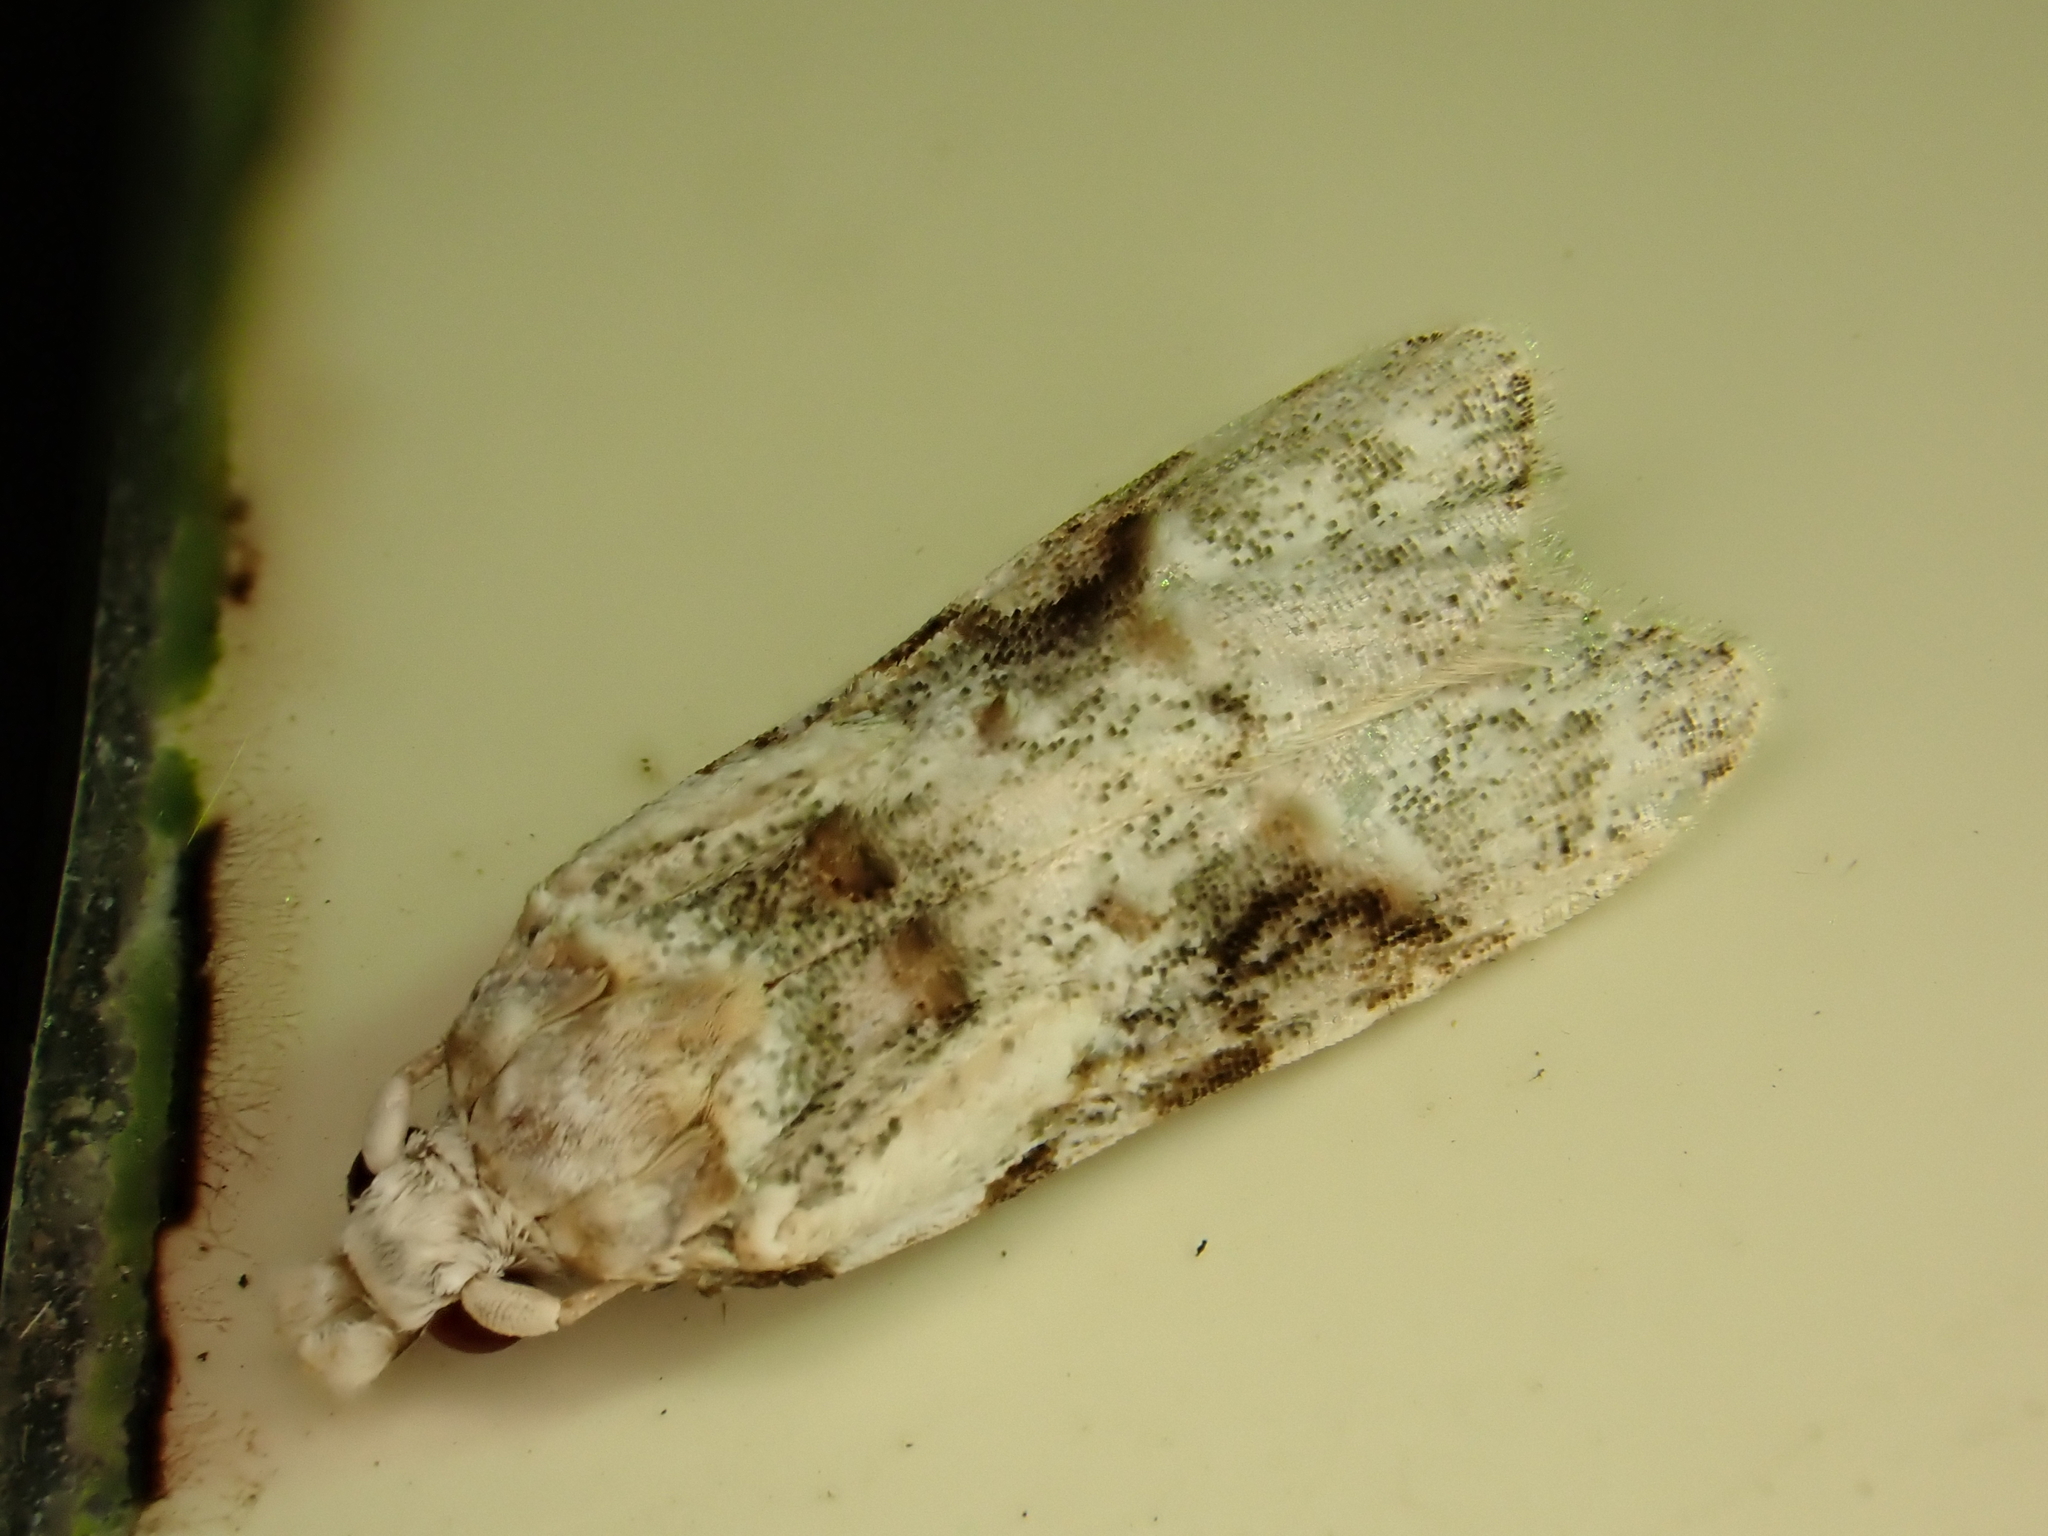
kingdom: Animalia
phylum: Arthropoda
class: Insecta
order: Lepidoptera
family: Carposinidae
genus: Coscinoptycha
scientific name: Coscinoptycha improbana
